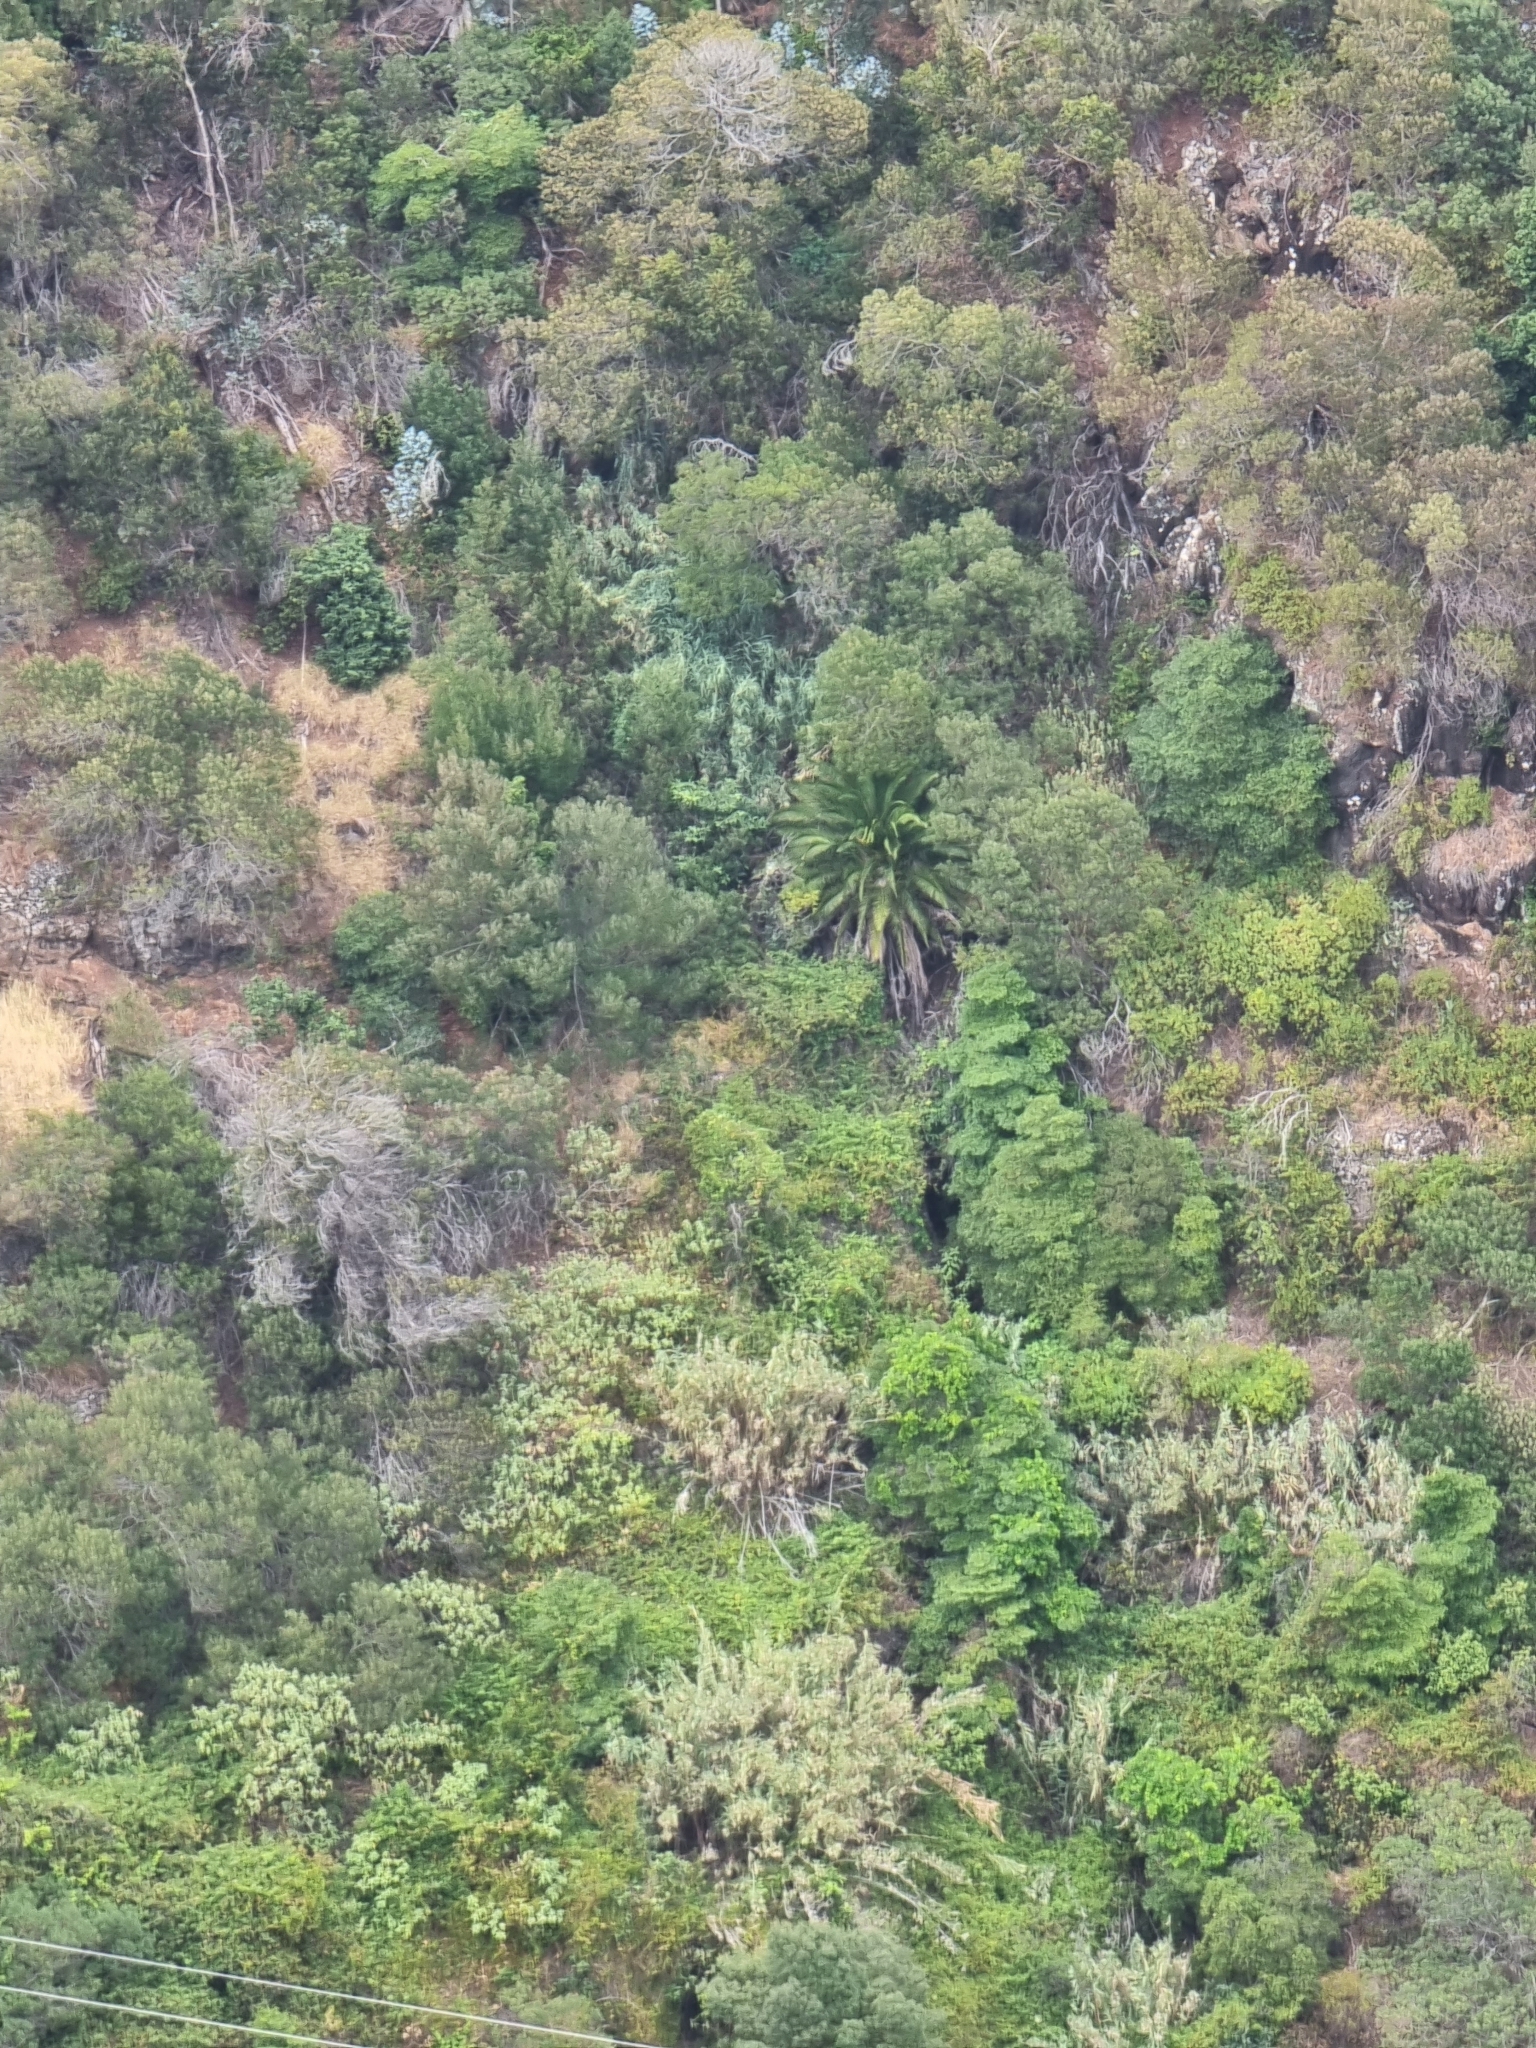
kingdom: Plantae
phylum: Tracheophyta
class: Liliopsida
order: Arecales
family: Arecaceae
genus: Phoenix
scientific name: Phoenix canariensis
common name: Canary island date palm
